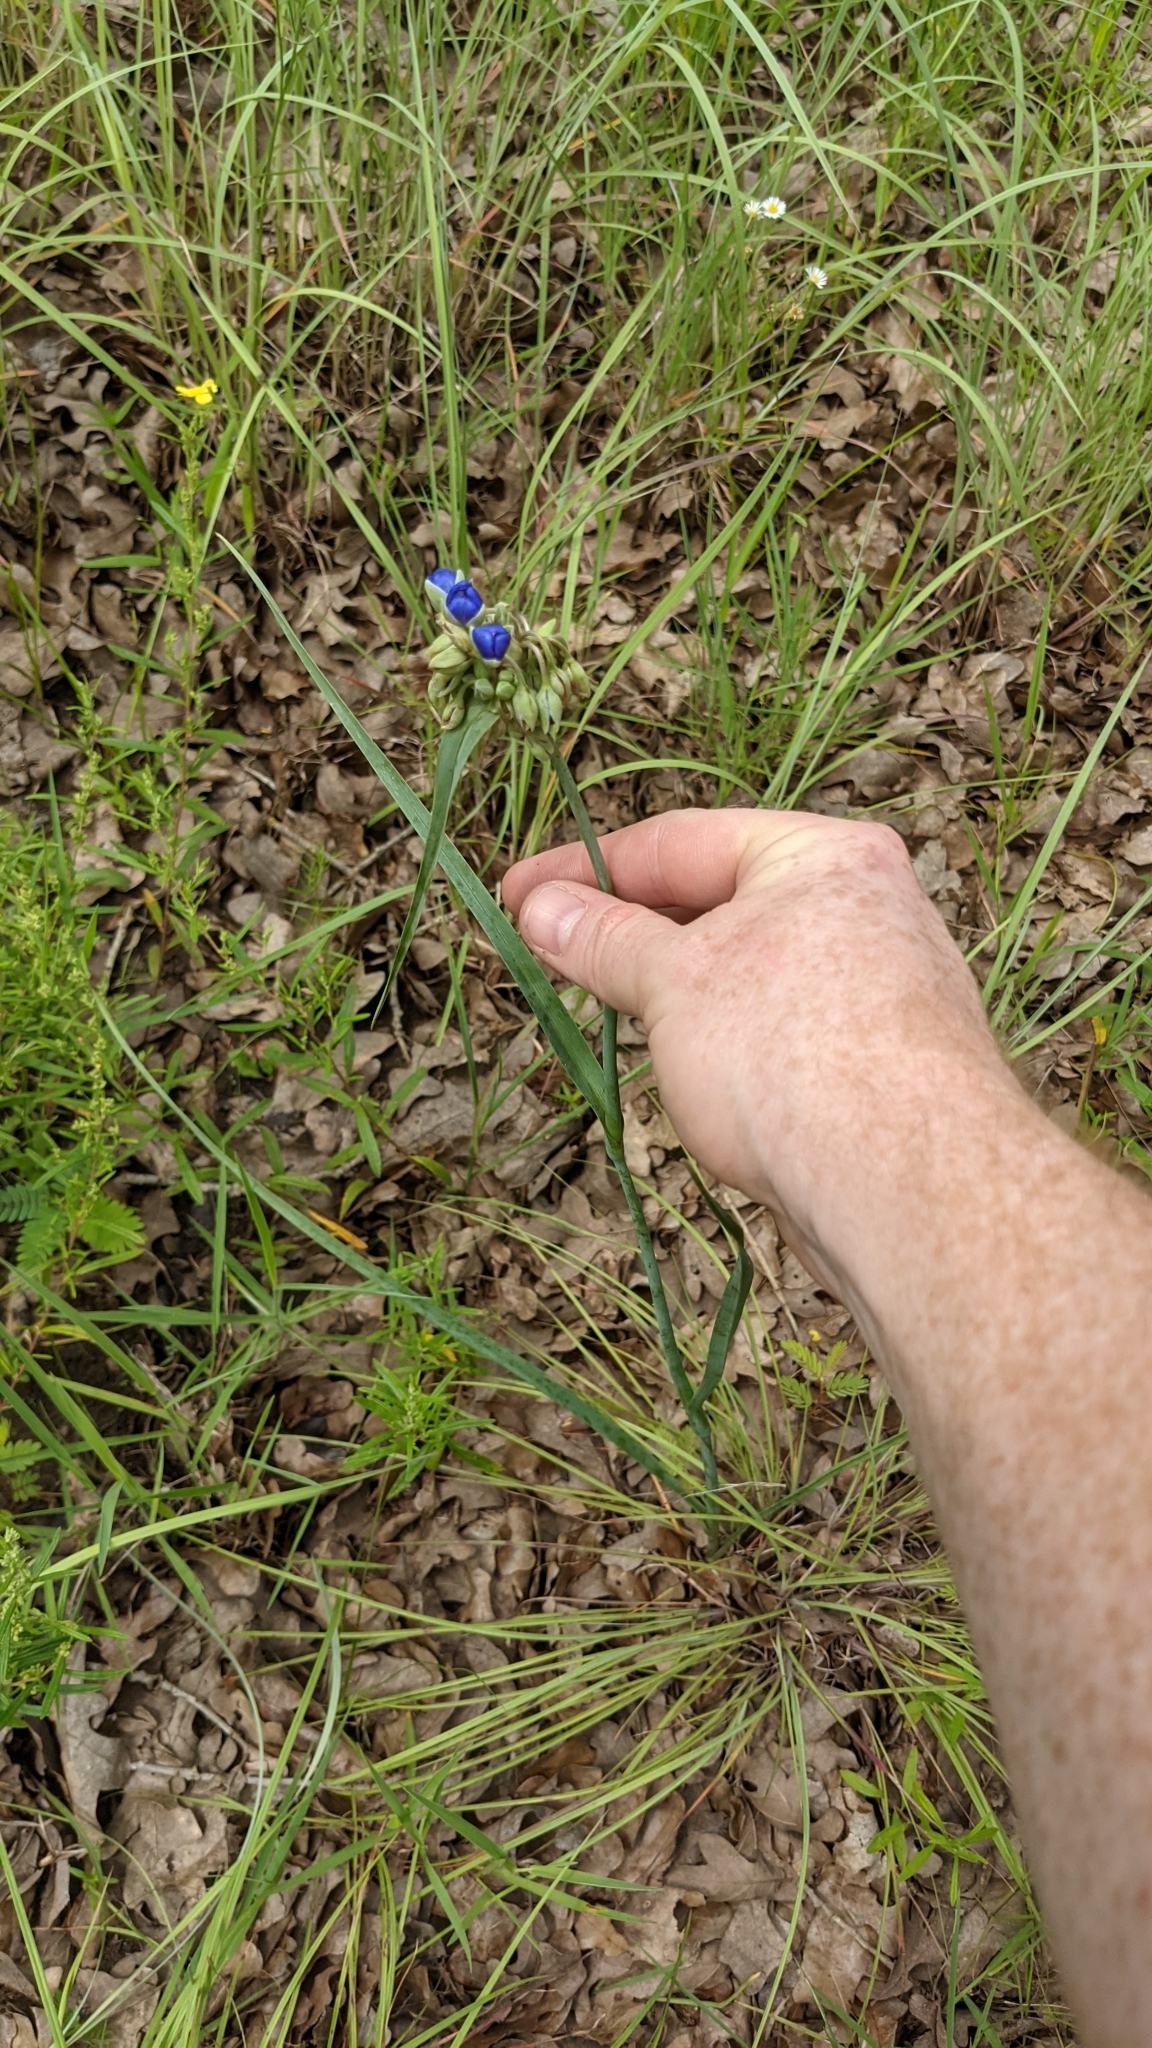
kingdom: Plantae
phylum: Tracheophyta
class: Liliopsida
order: Commelinales
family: Commelinaceae
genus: Tradescantia
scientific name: Tradescantia occidentalis
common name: Prairie spiderwort
